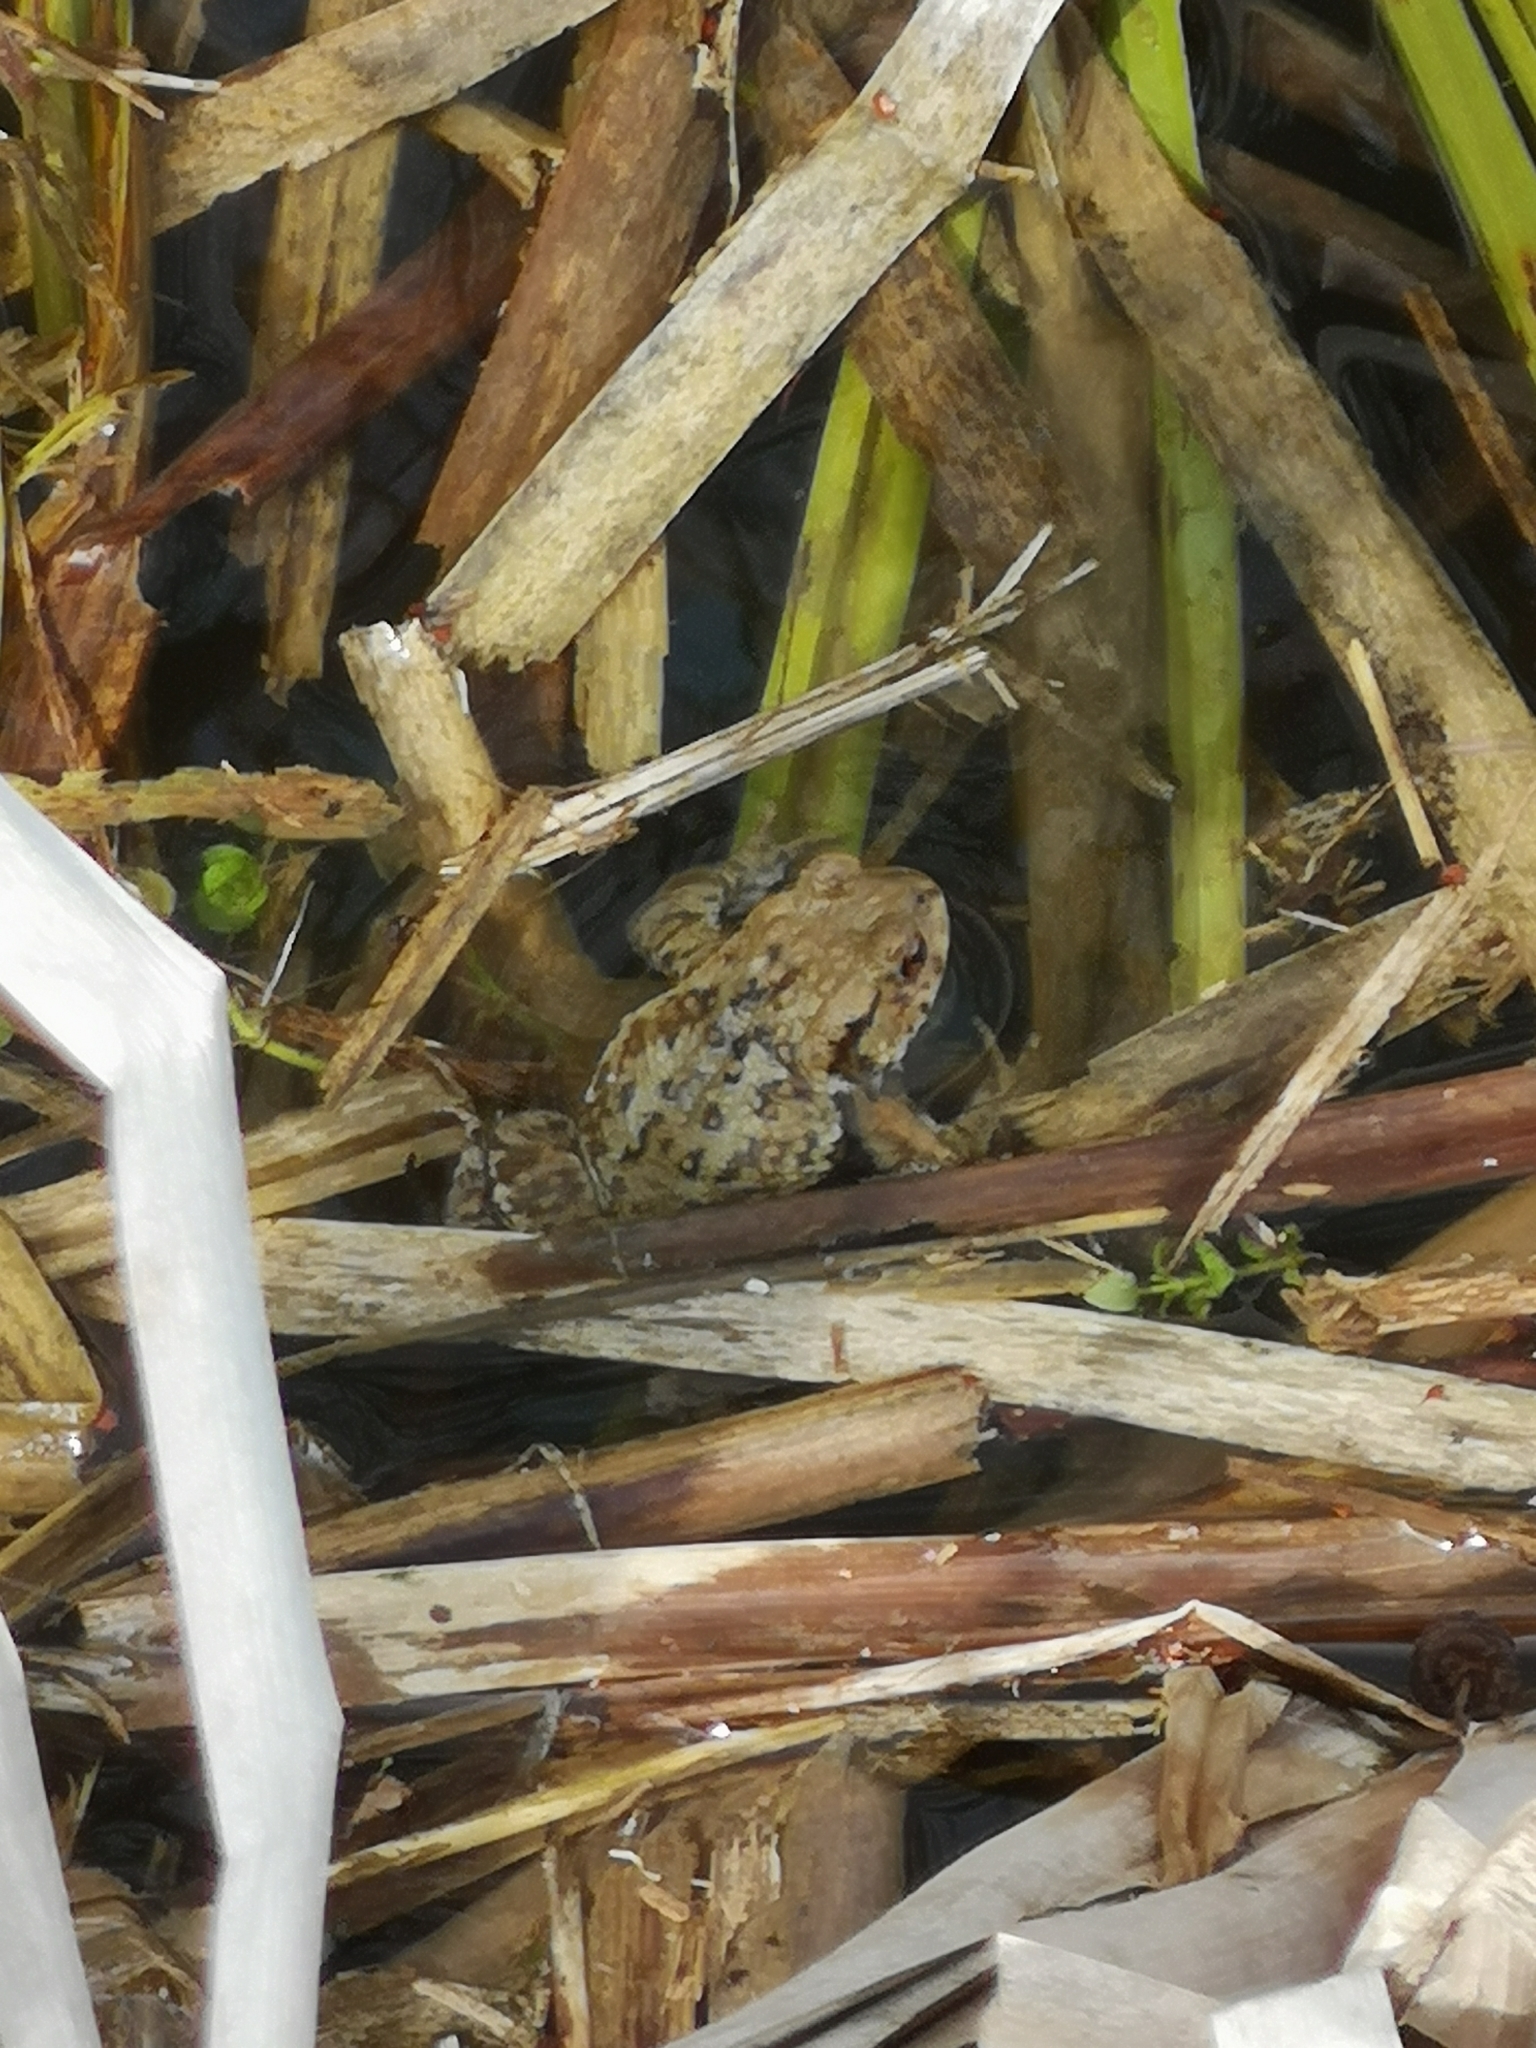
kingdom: Animalia
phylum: Chordata
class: Amphibia
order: Anura
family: Bufonidae
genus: Bufo
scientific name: Bufo bufo
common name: Common toad
